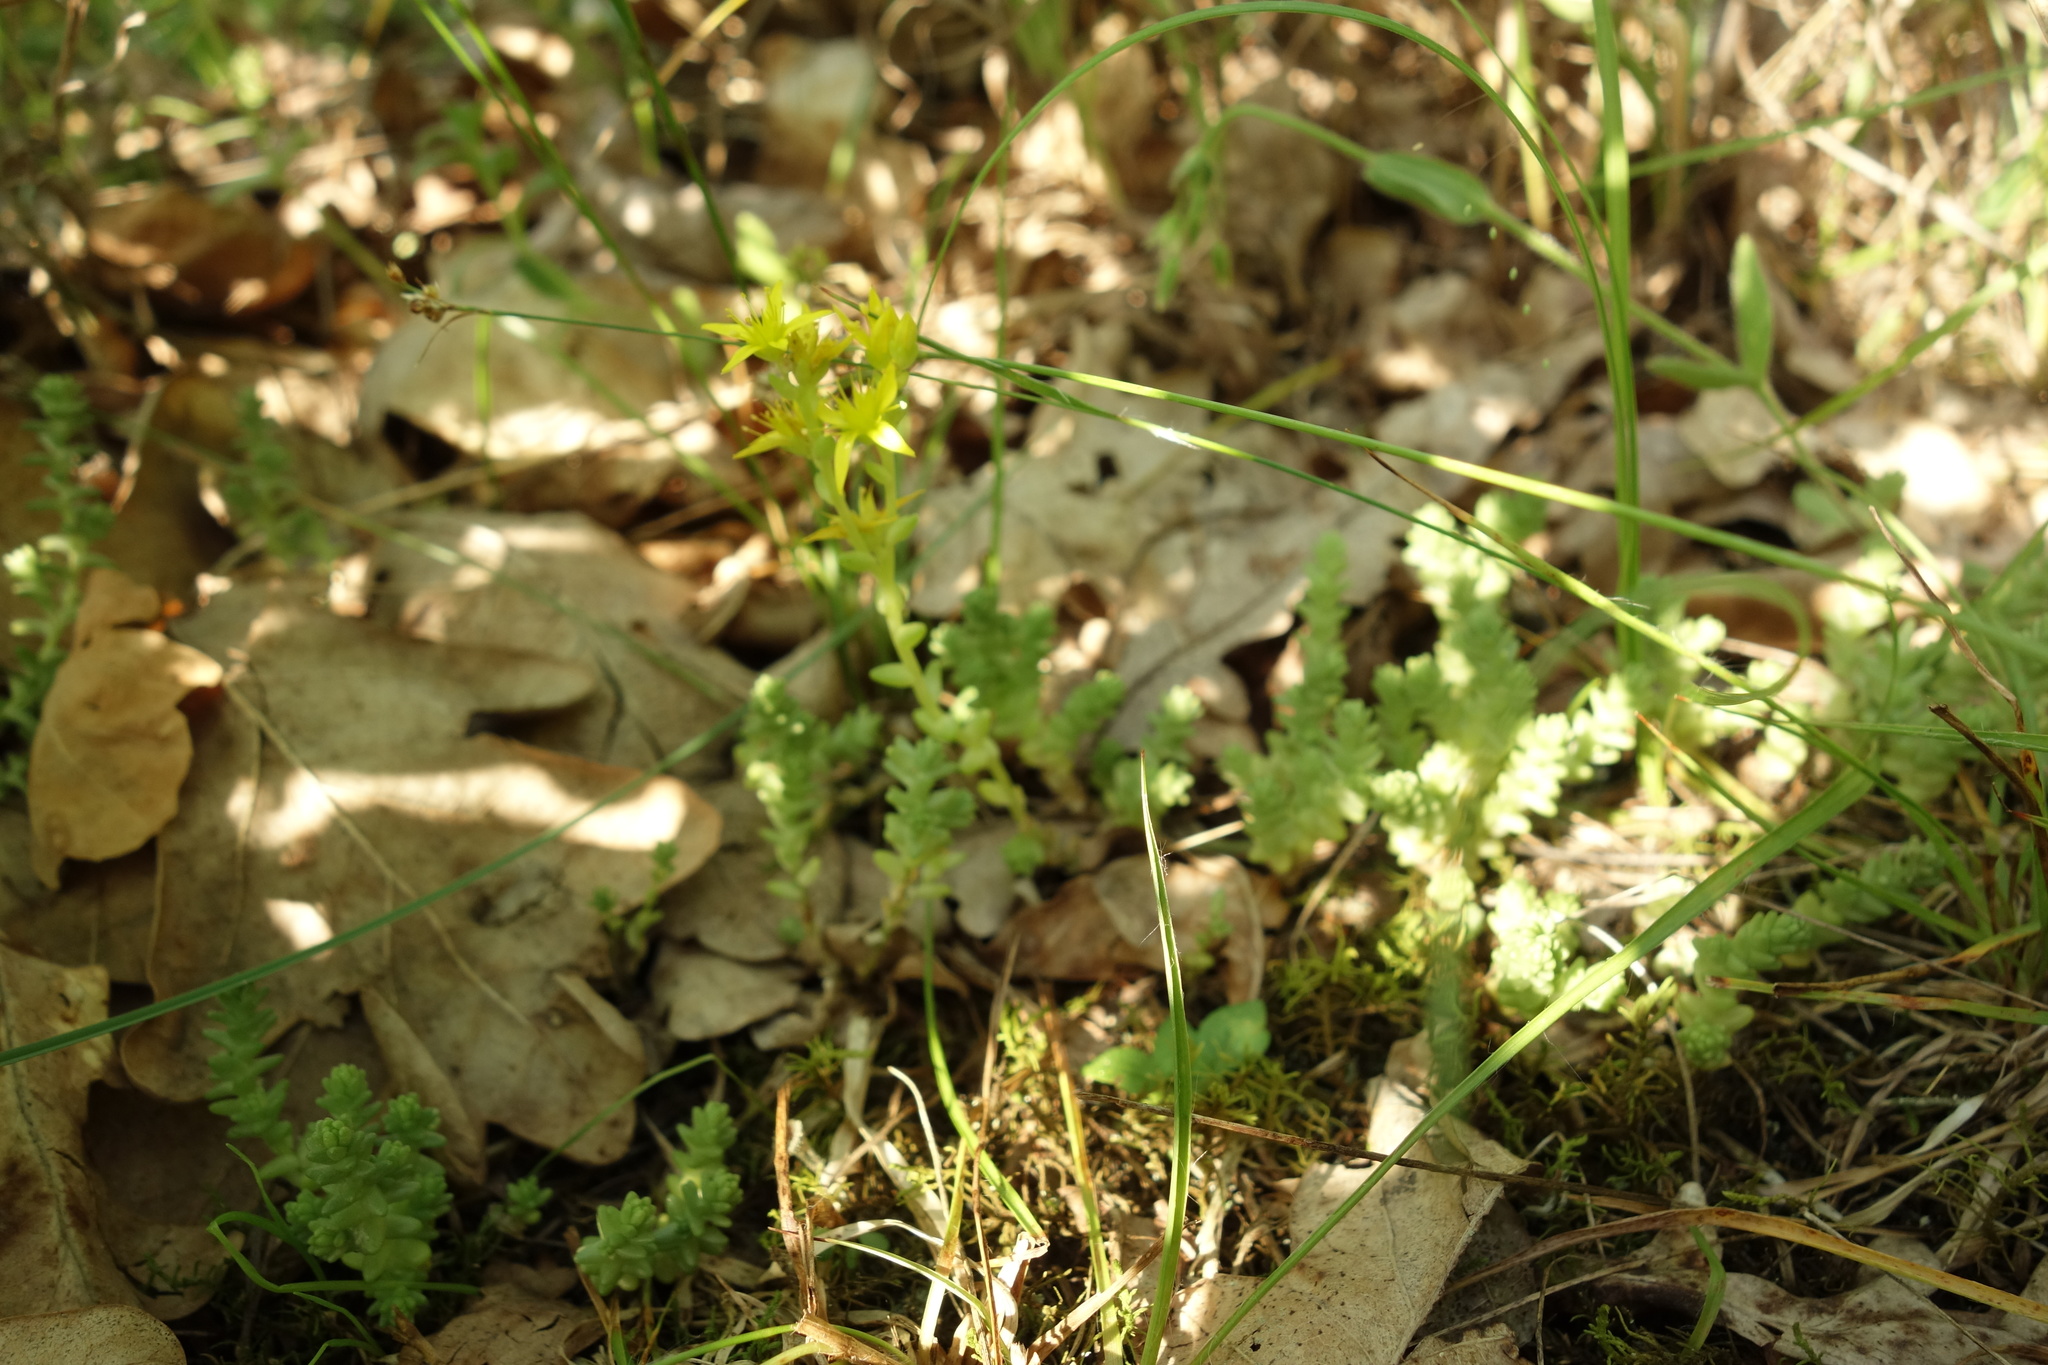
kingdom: Plantae
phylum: Tracheophyta
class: Magnoliopsida
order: Saxifragales
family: Crassulaceae
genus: Sedum
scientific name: Sedum acre
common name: Biting stonecrop
